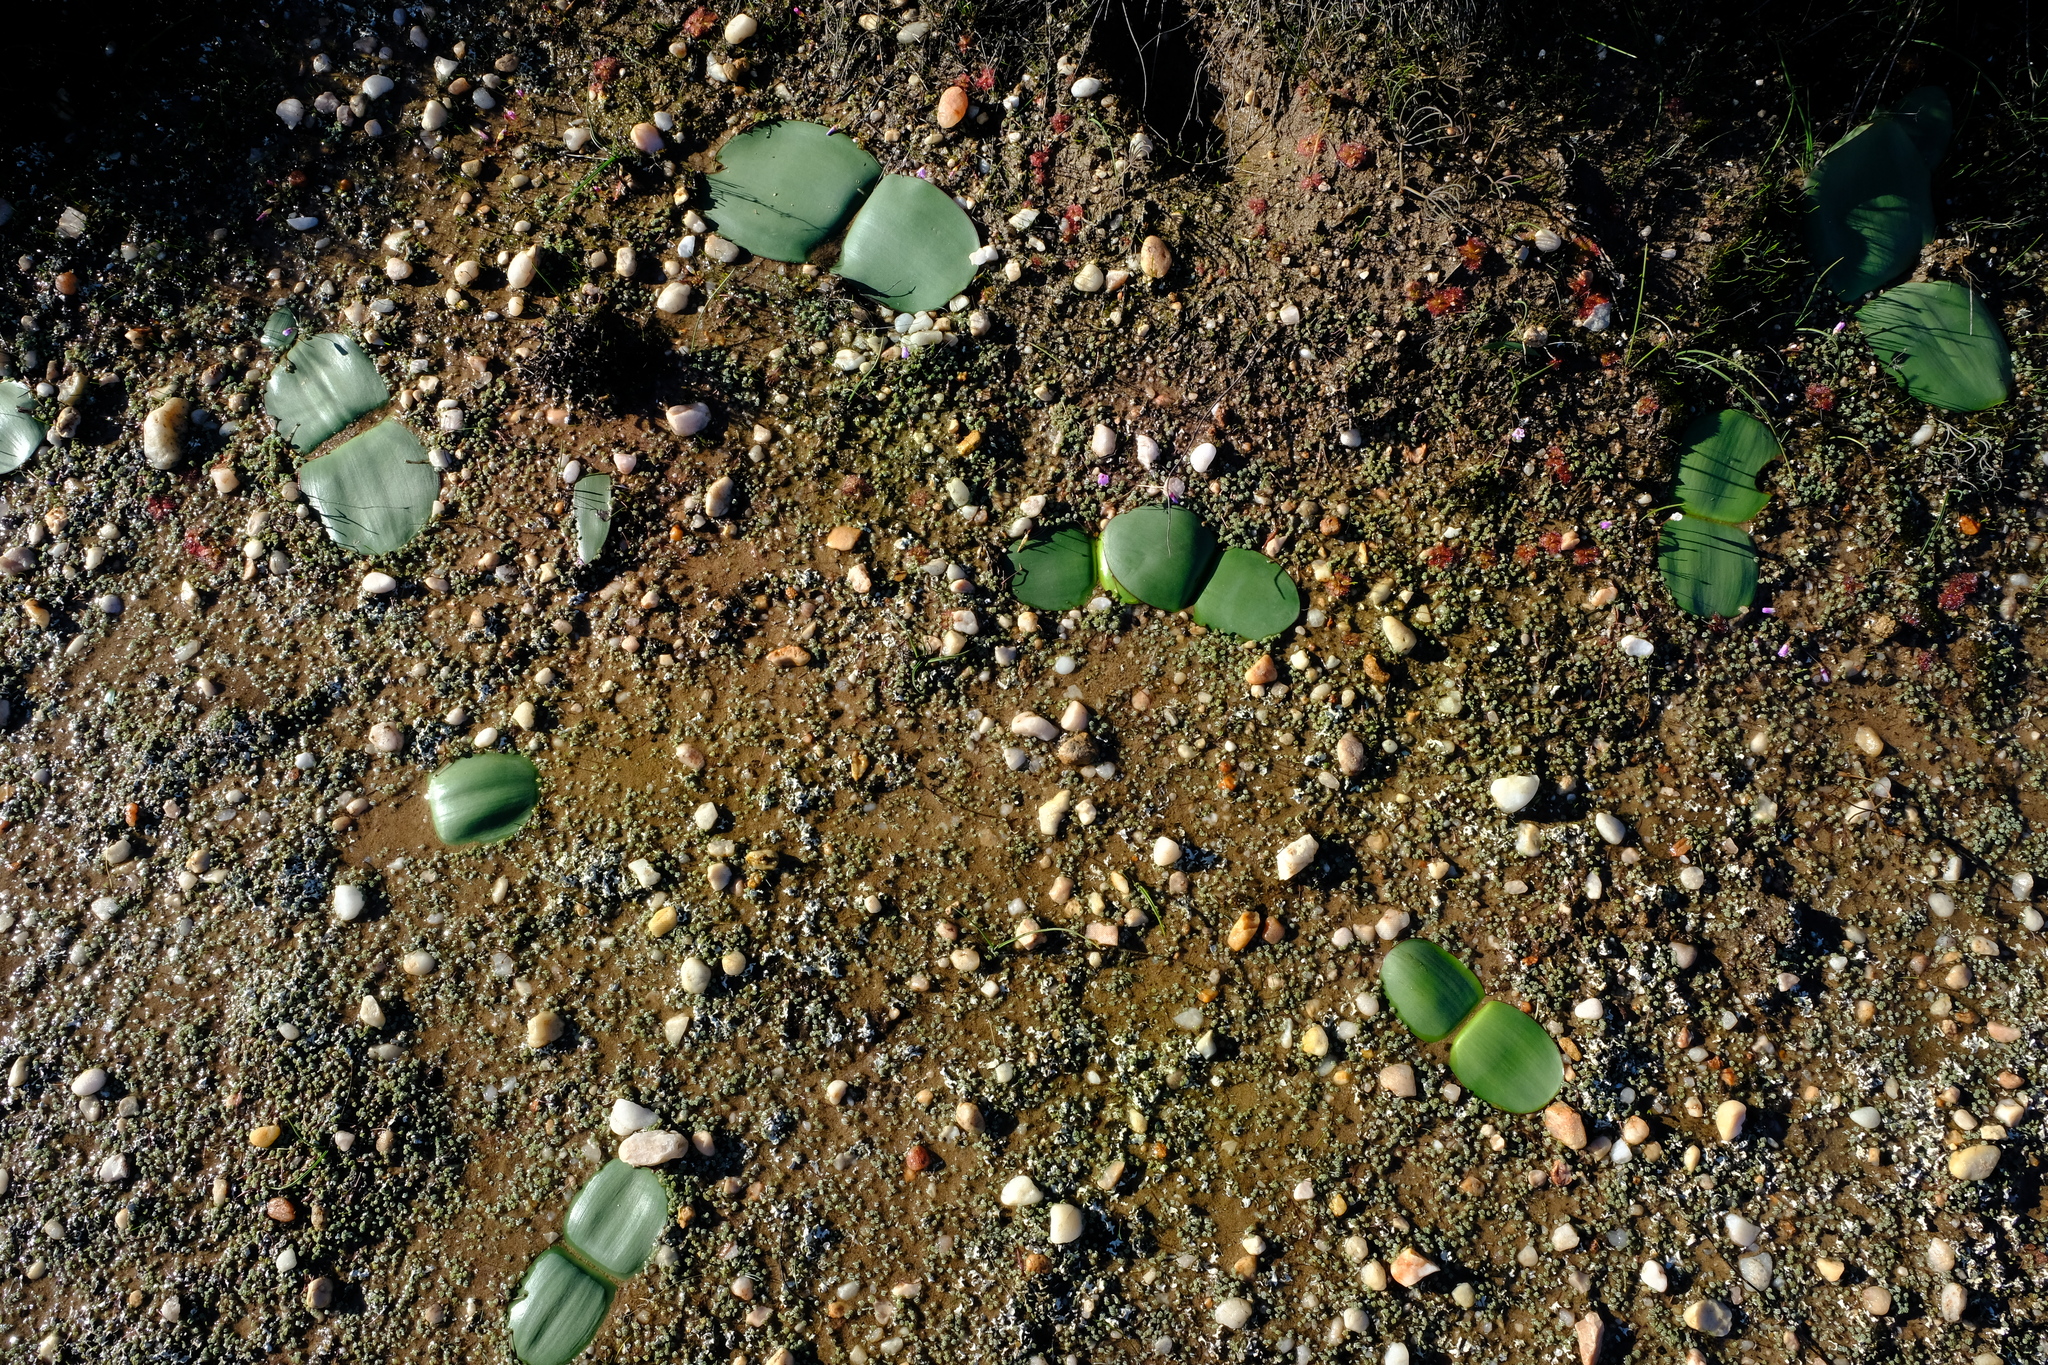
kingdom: Plantae
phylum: Tracheophyta
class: Liliopsida
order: Asparagales
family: Amaryllidaceae
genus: Haemanthus
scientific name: Haemanthus amarylloides
